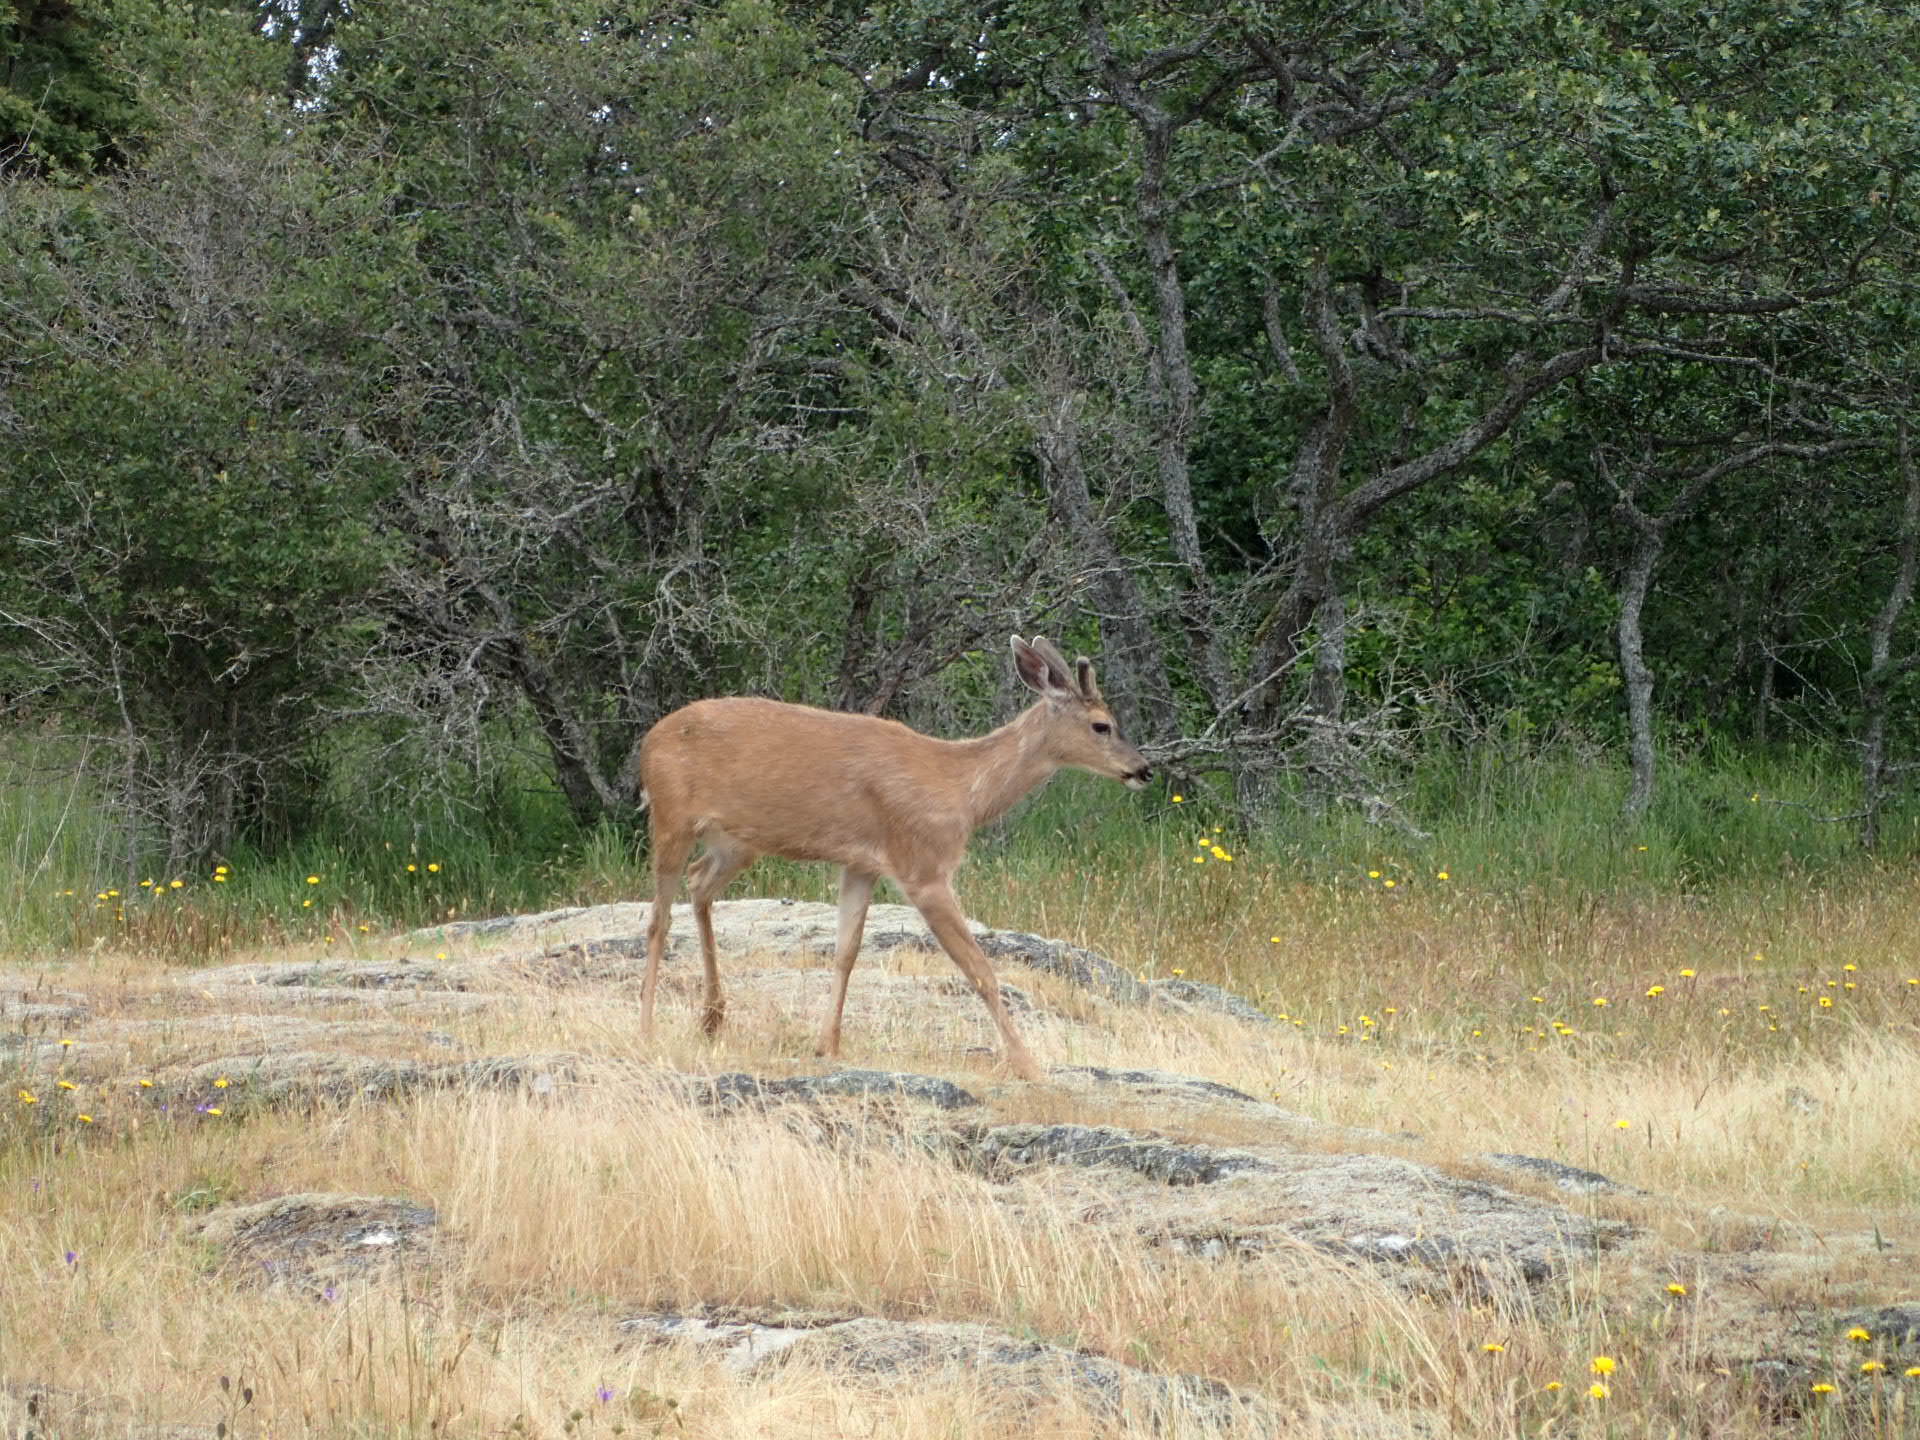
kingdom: Animalia
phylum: Chordata
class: Mammalia
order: Artiodactyla
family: Cervidae
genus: Odocoileus
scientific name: Odocoileus hemionus
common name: Mule deer
